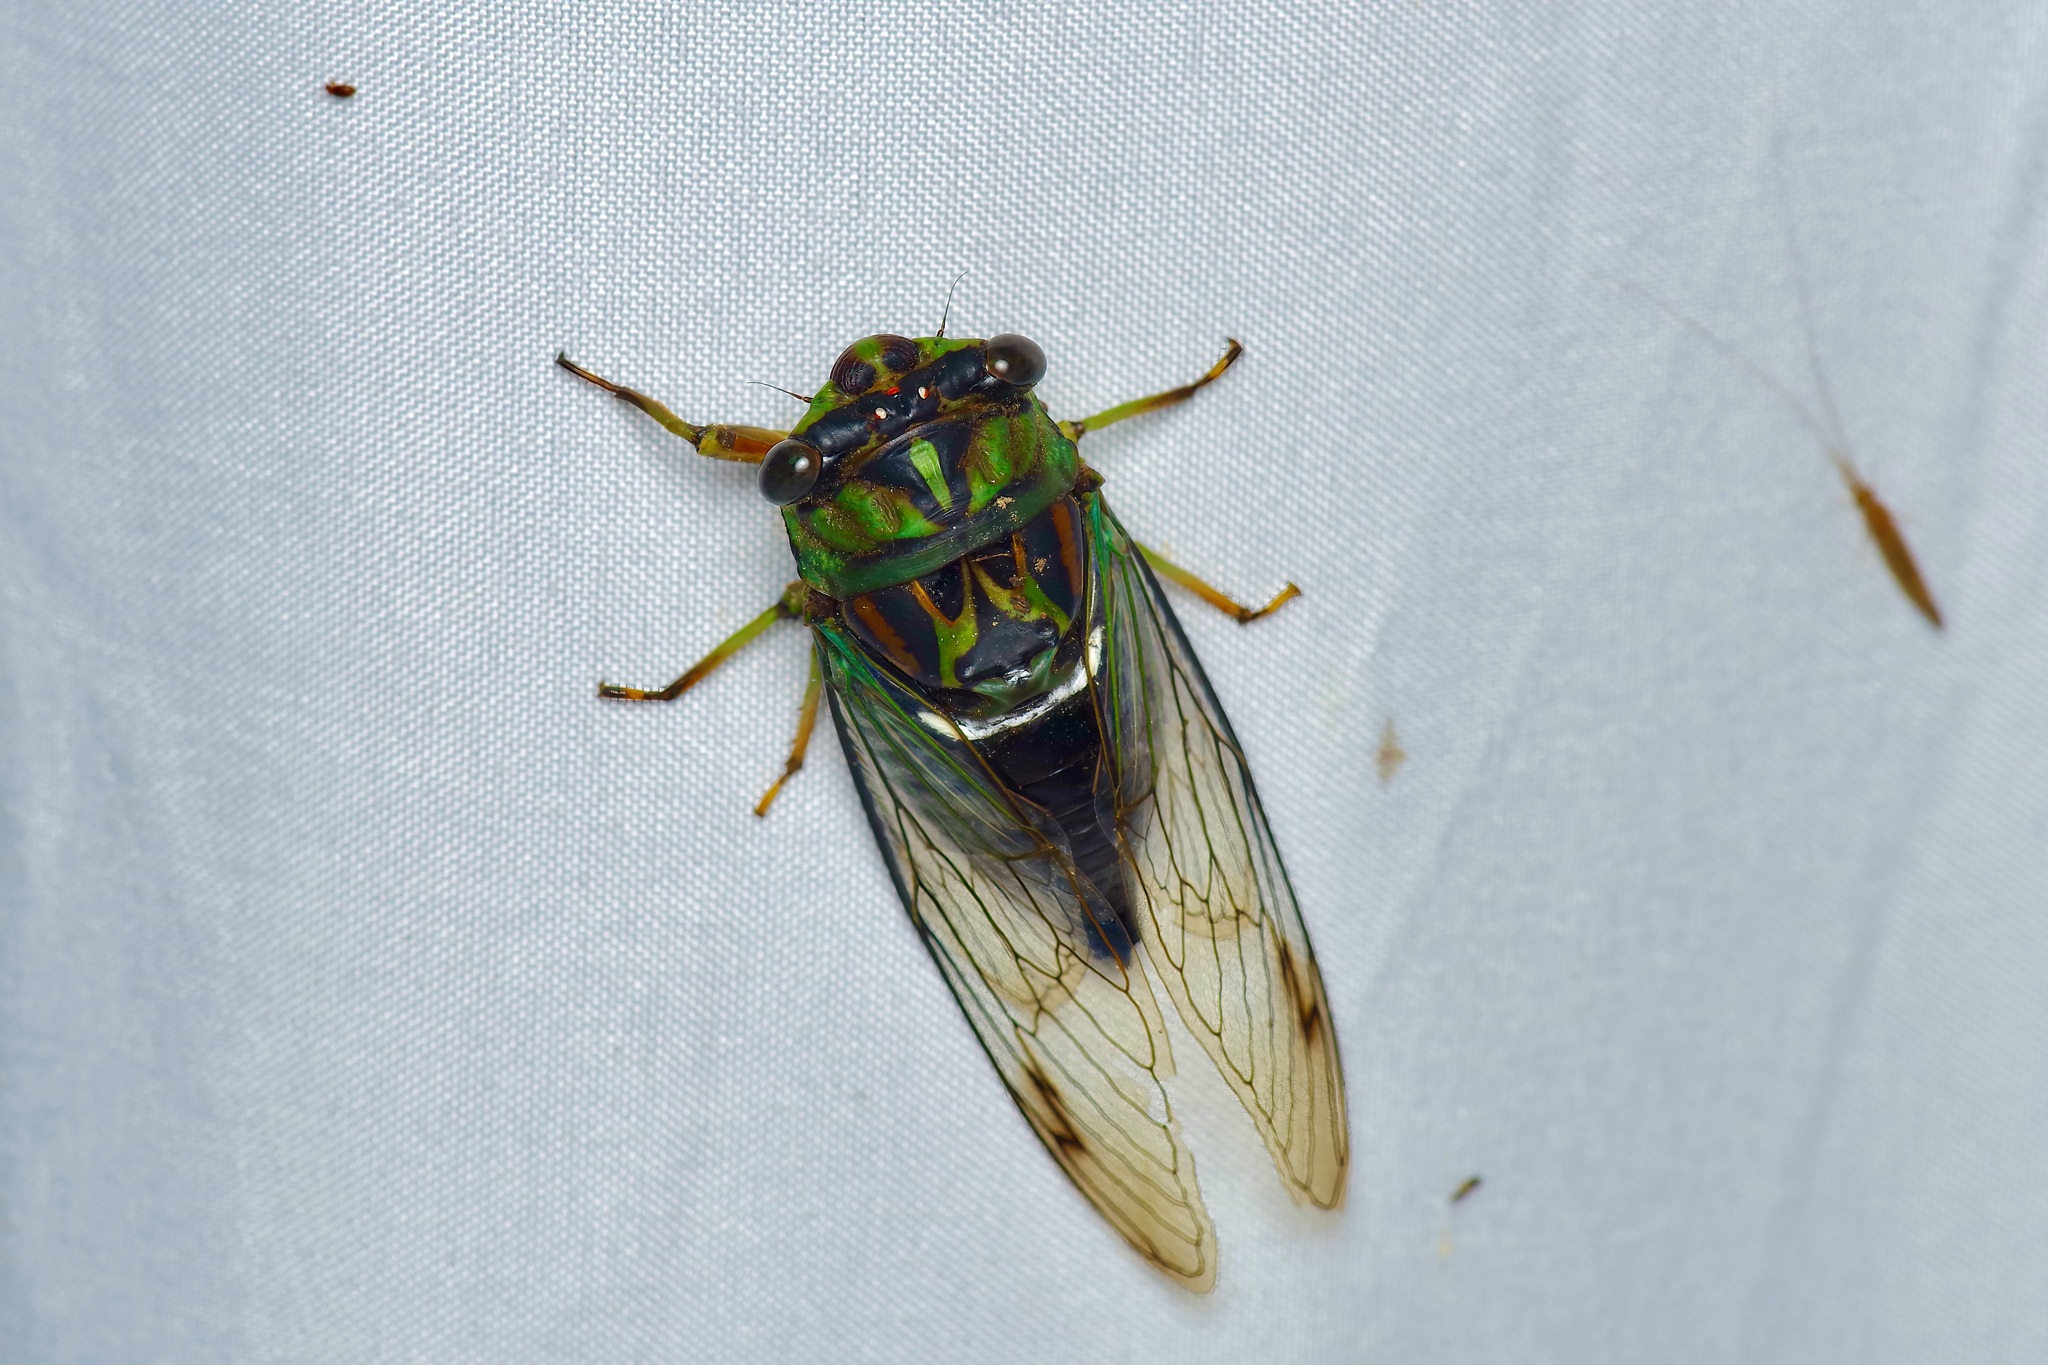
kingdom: Animalia
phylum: Arthropoda
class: Insecta
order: Hemiptera
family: Cicadidae
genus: Neotibicen
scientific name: Neotibicen robinsonianus
